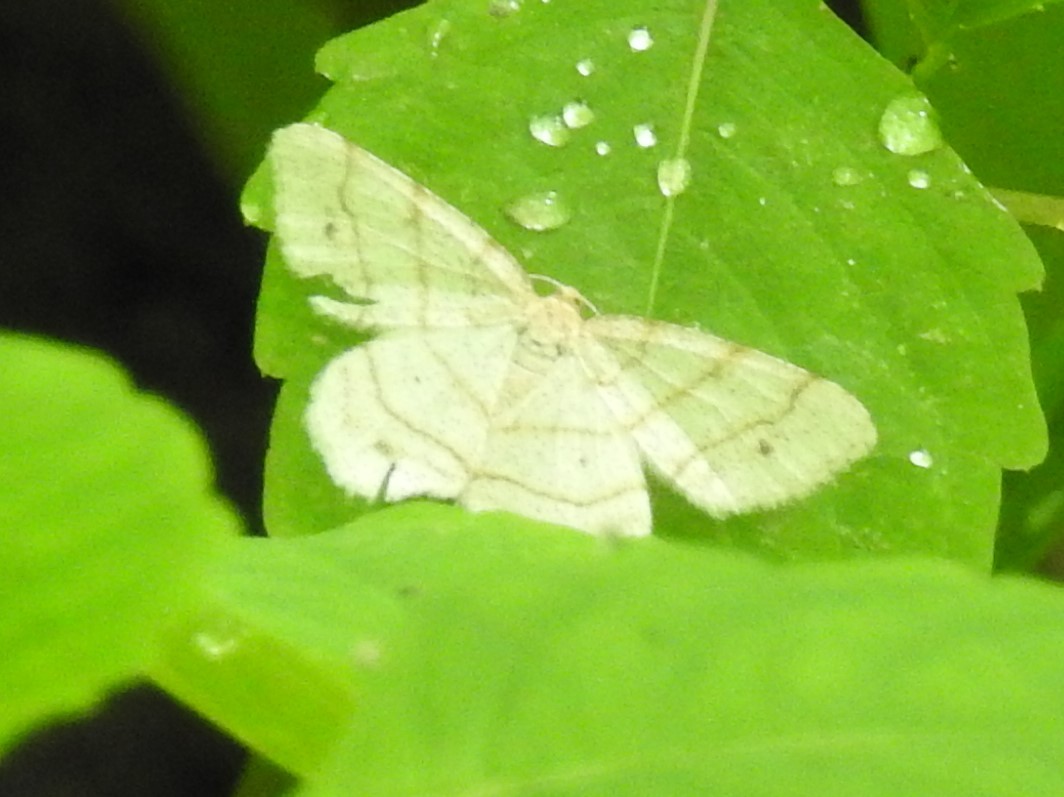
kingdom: Animalia
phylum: Arthropoda
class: Insecta
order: Lepidoptera
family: Geometridae
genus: Trigrammia
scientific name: Trigrammia quadrinotaria
